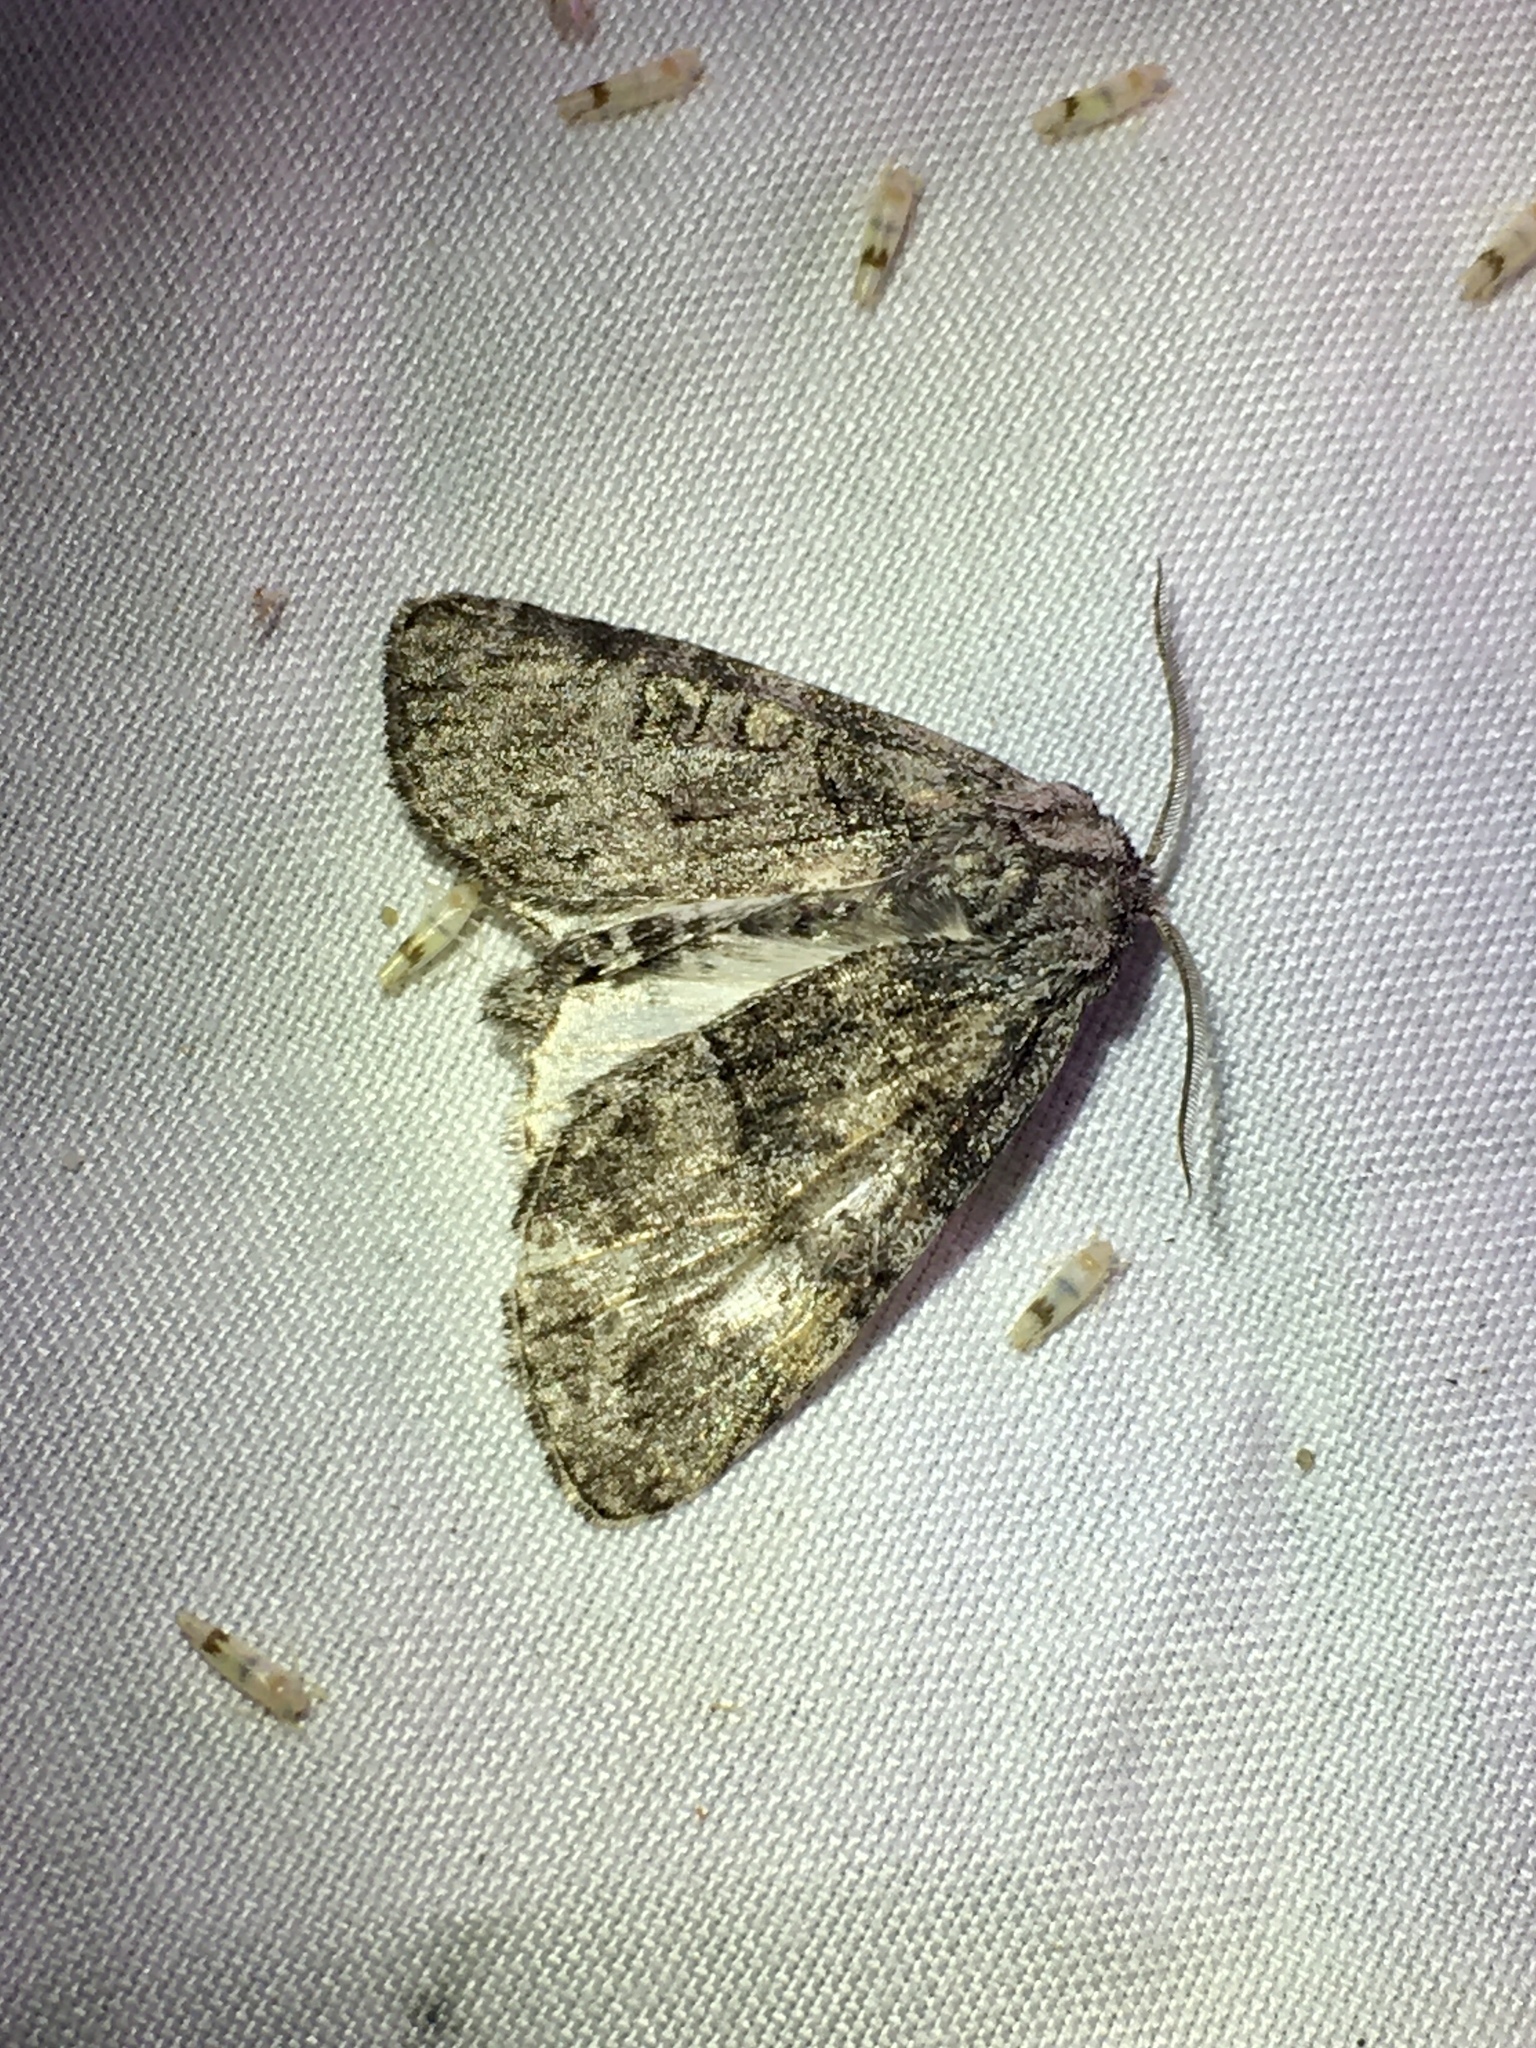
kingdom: Animalia
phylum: Arthropoda
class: Insecta
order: Lepidoptera
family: Noctuidae
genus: Raphia
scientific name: Raphia frater
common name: Brother
